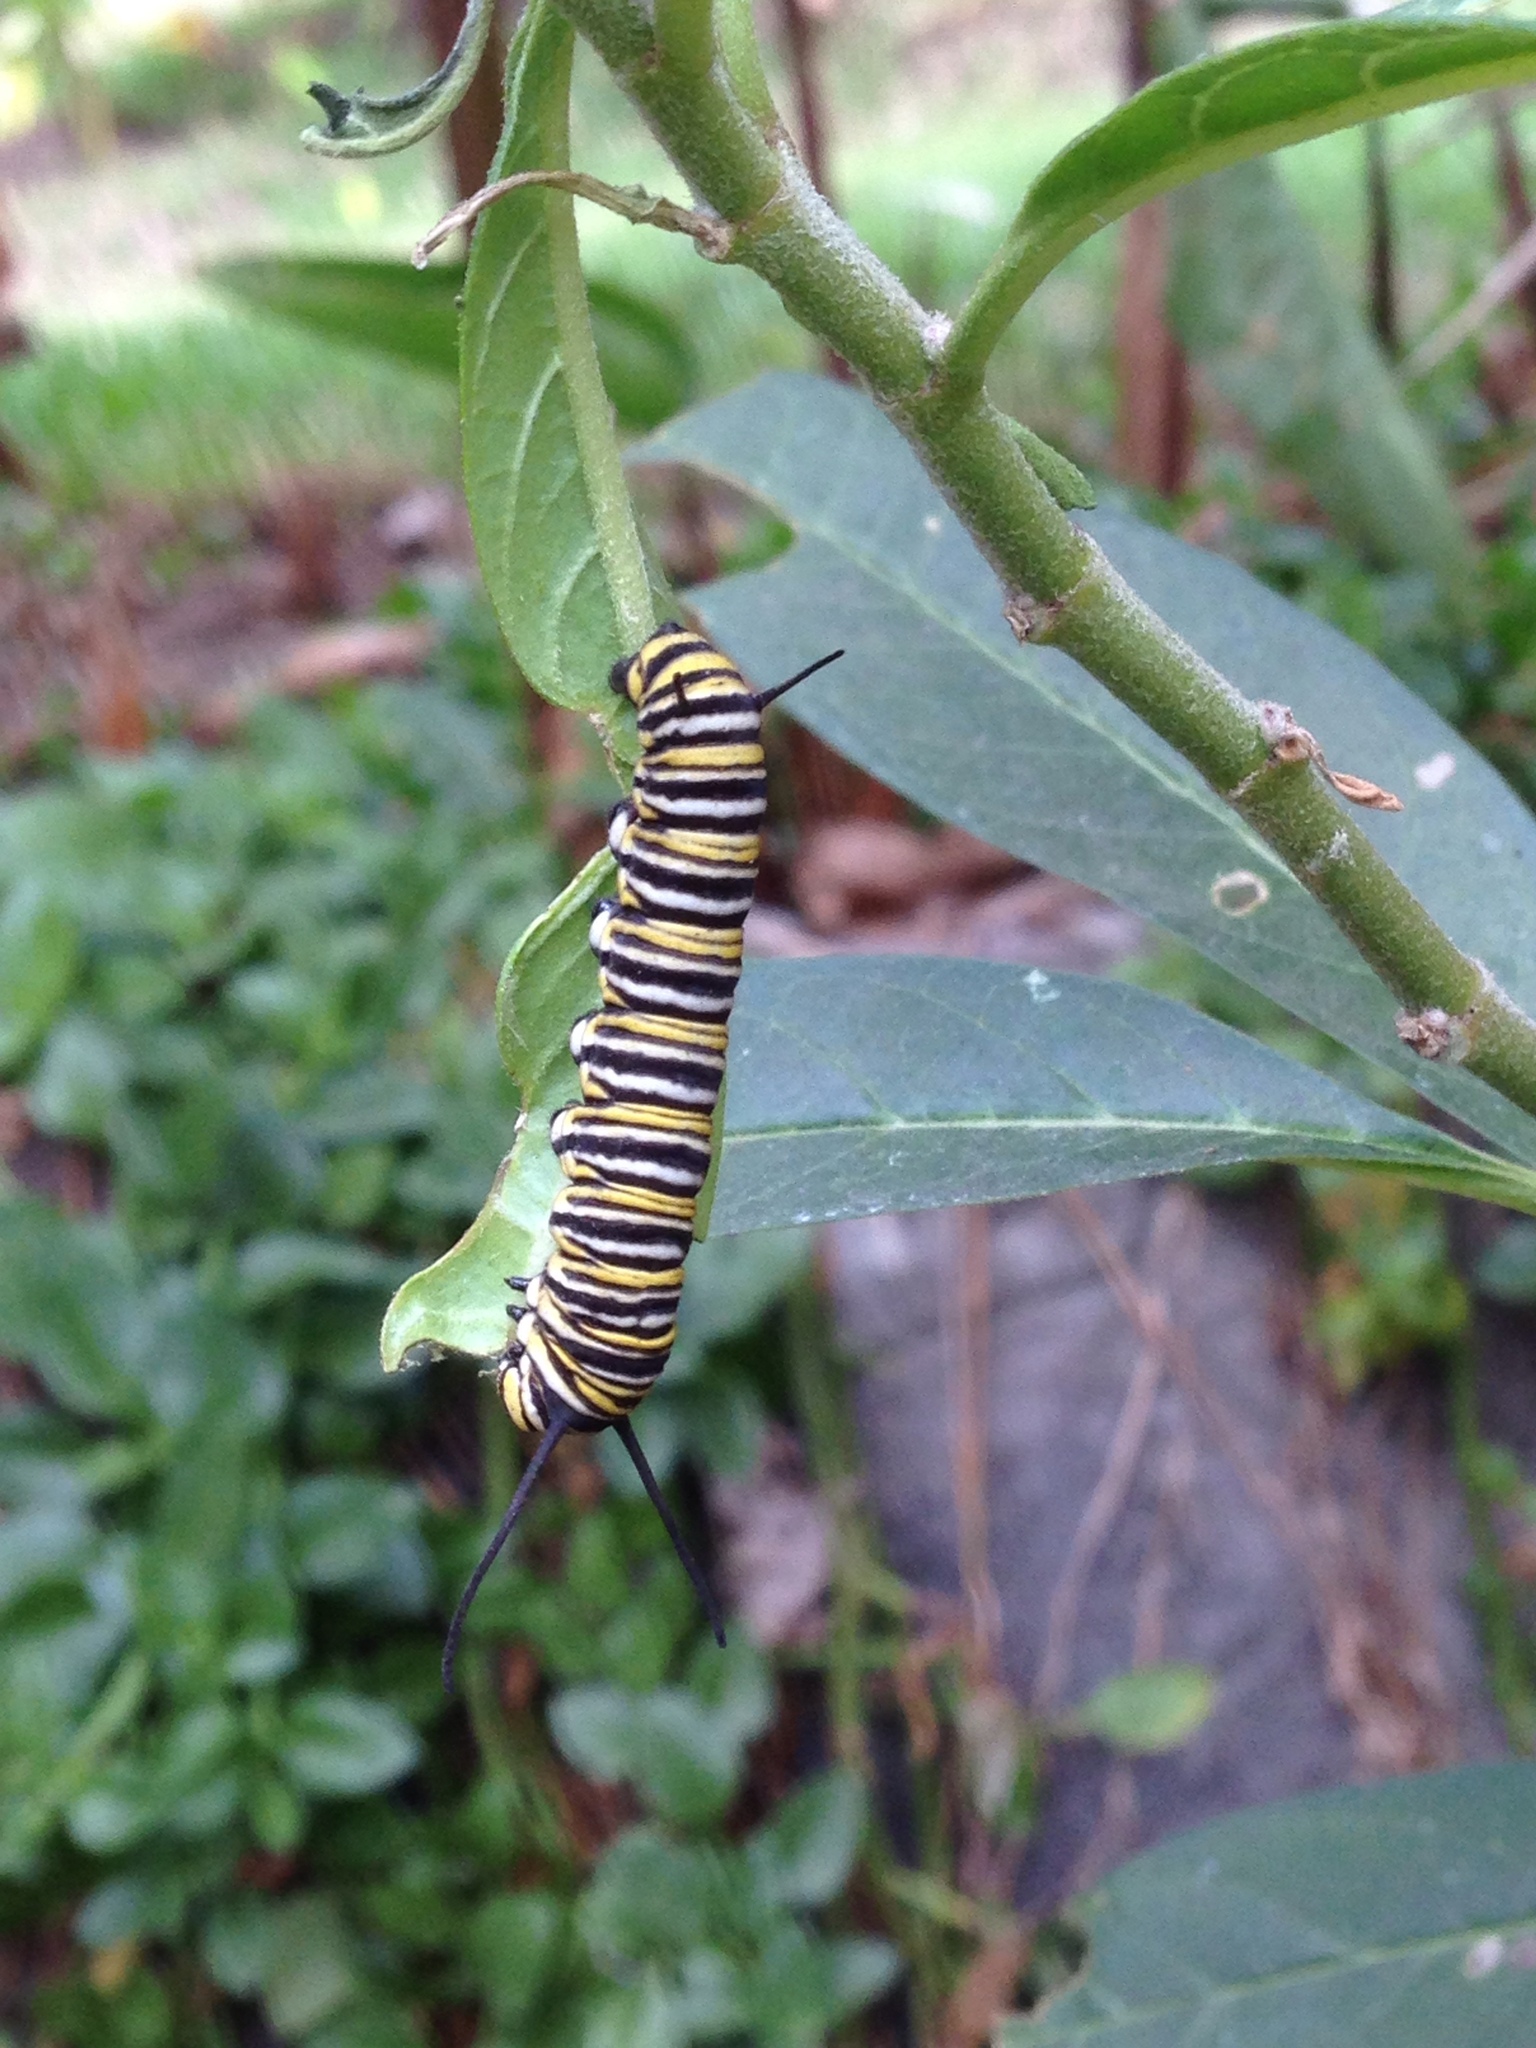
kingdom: Animalia
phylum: Arthropoda
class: Insecta
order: Lepidoptera
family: Nymphalidae
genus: Danaus
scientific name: Danaus plexippus
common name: Monarch
